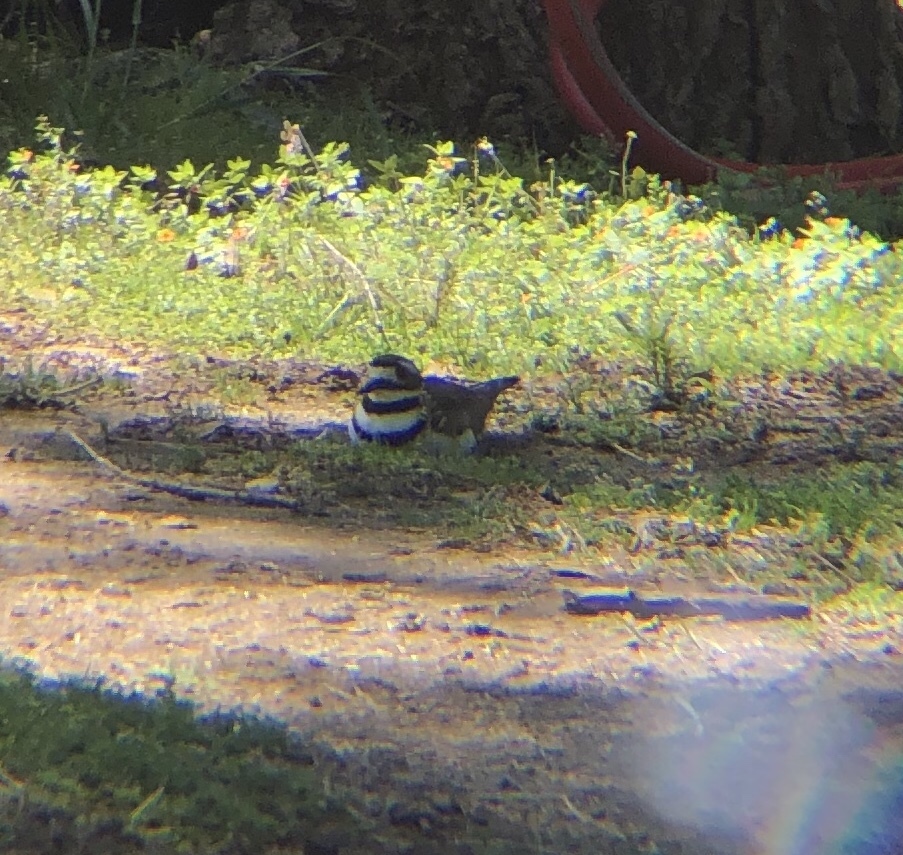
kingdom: Animalia
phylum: Chordata
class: Aves
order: Charadriiformes
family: Charadriidae
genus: Charadrius
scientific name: Charadrius vociferus
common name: Killdeer
